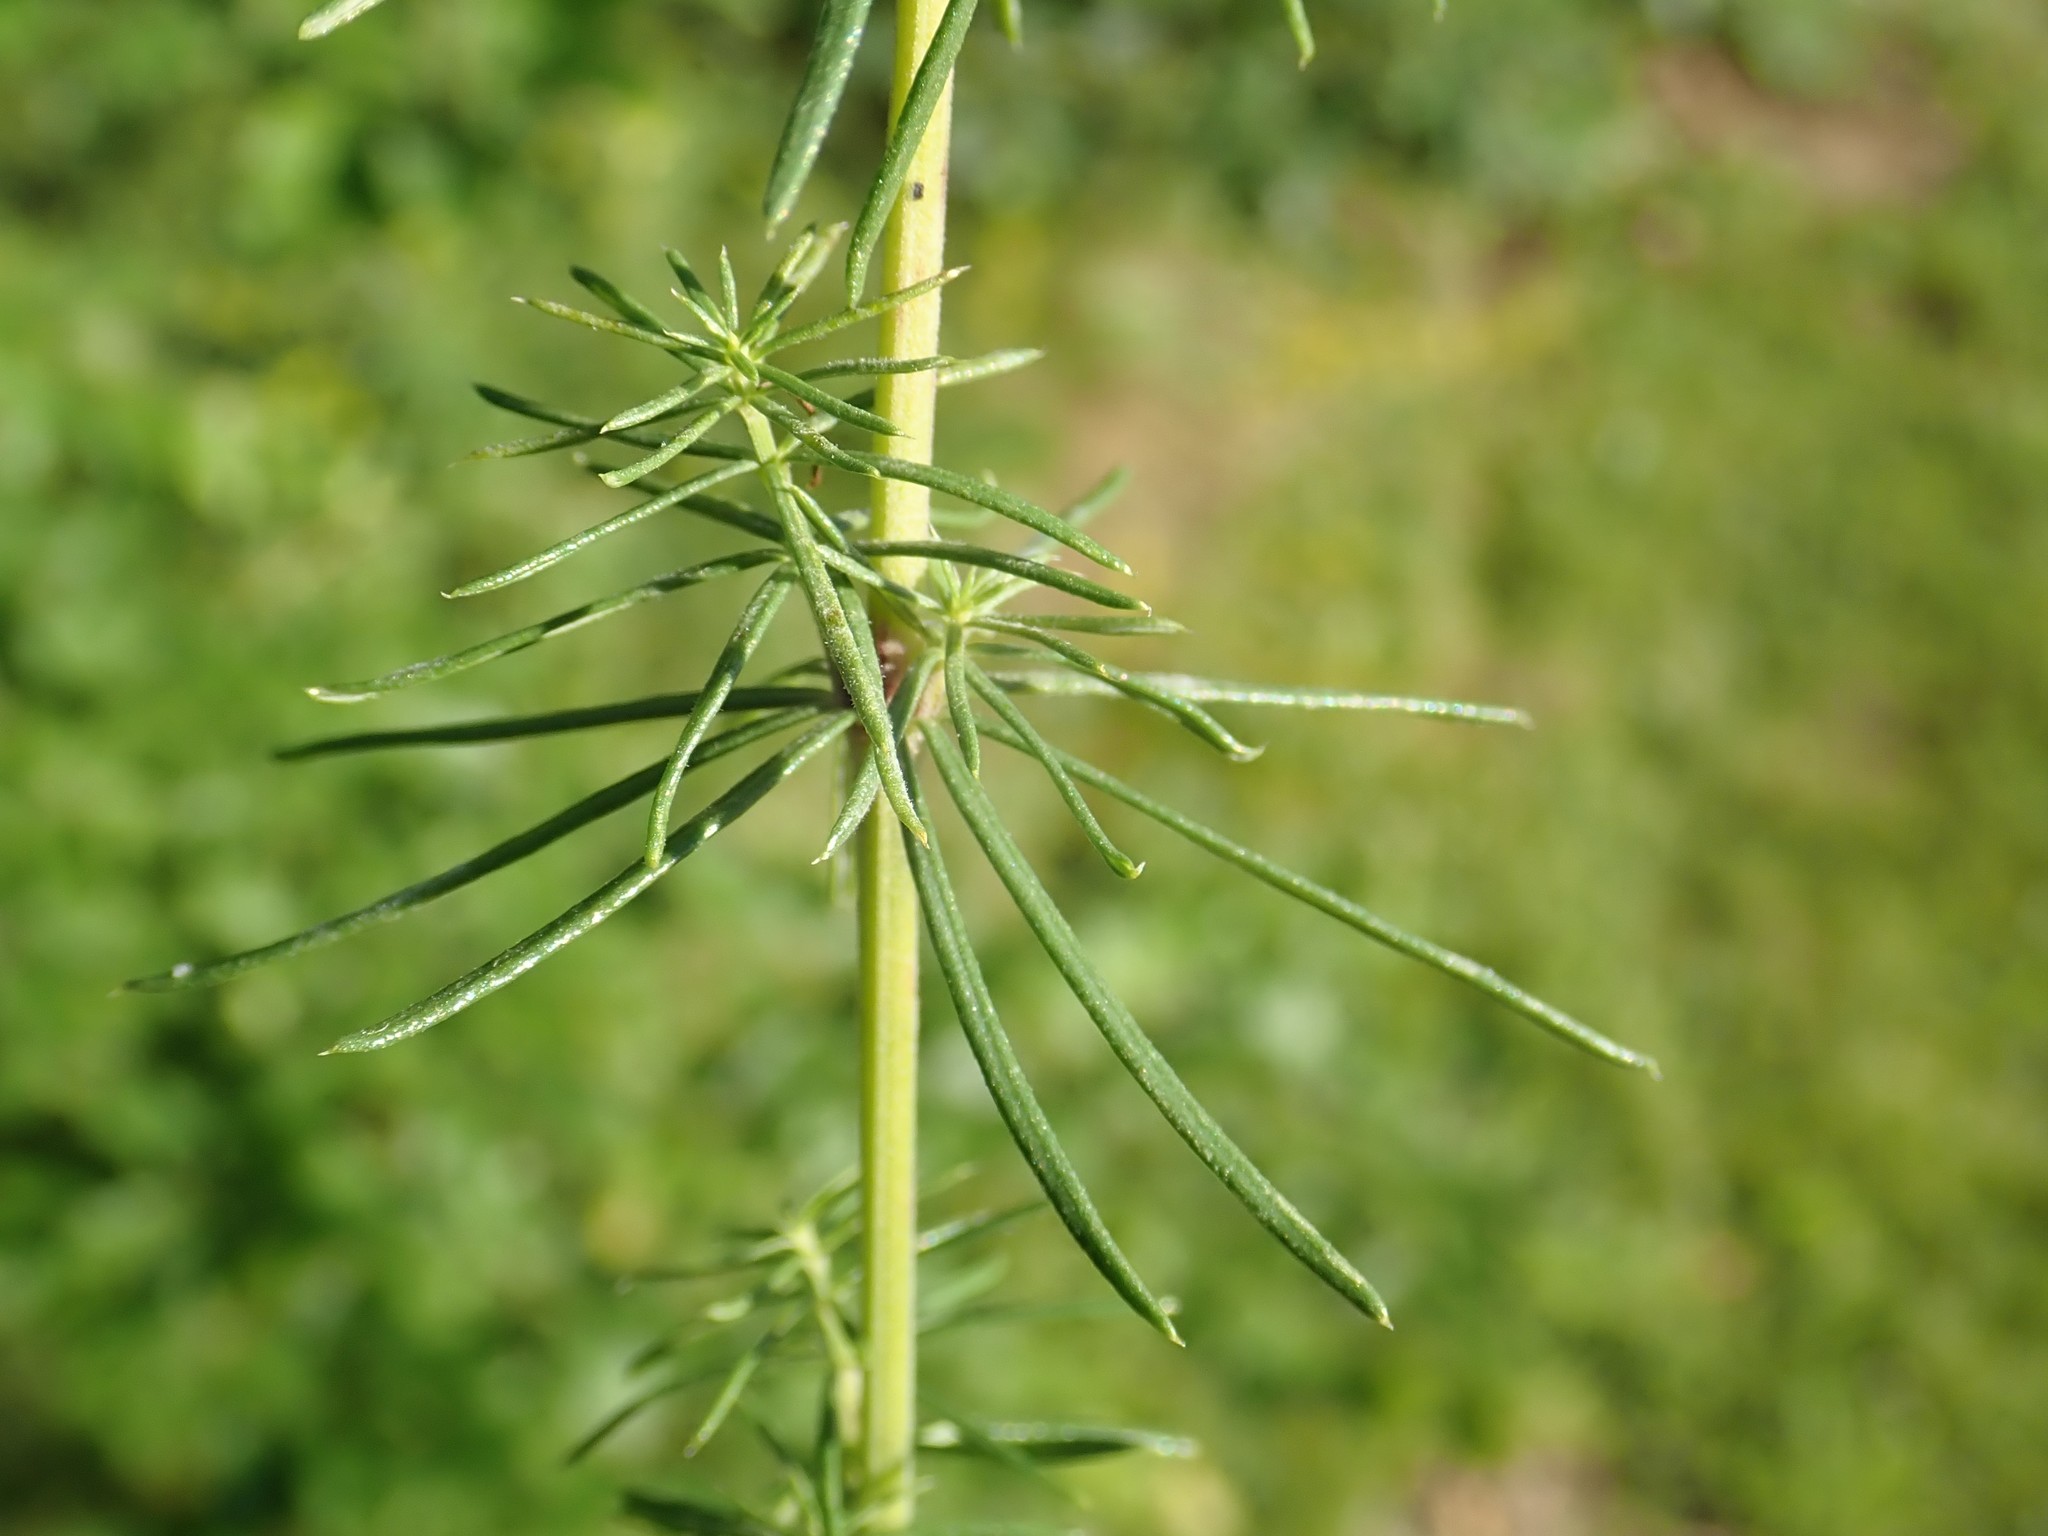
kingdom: Plantae
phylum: Tracheophyta
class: Magnoliopsida
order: Gentianales
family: Rubiaceae
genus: Galium
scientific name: Galium verum
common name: Lady's bedstraw
